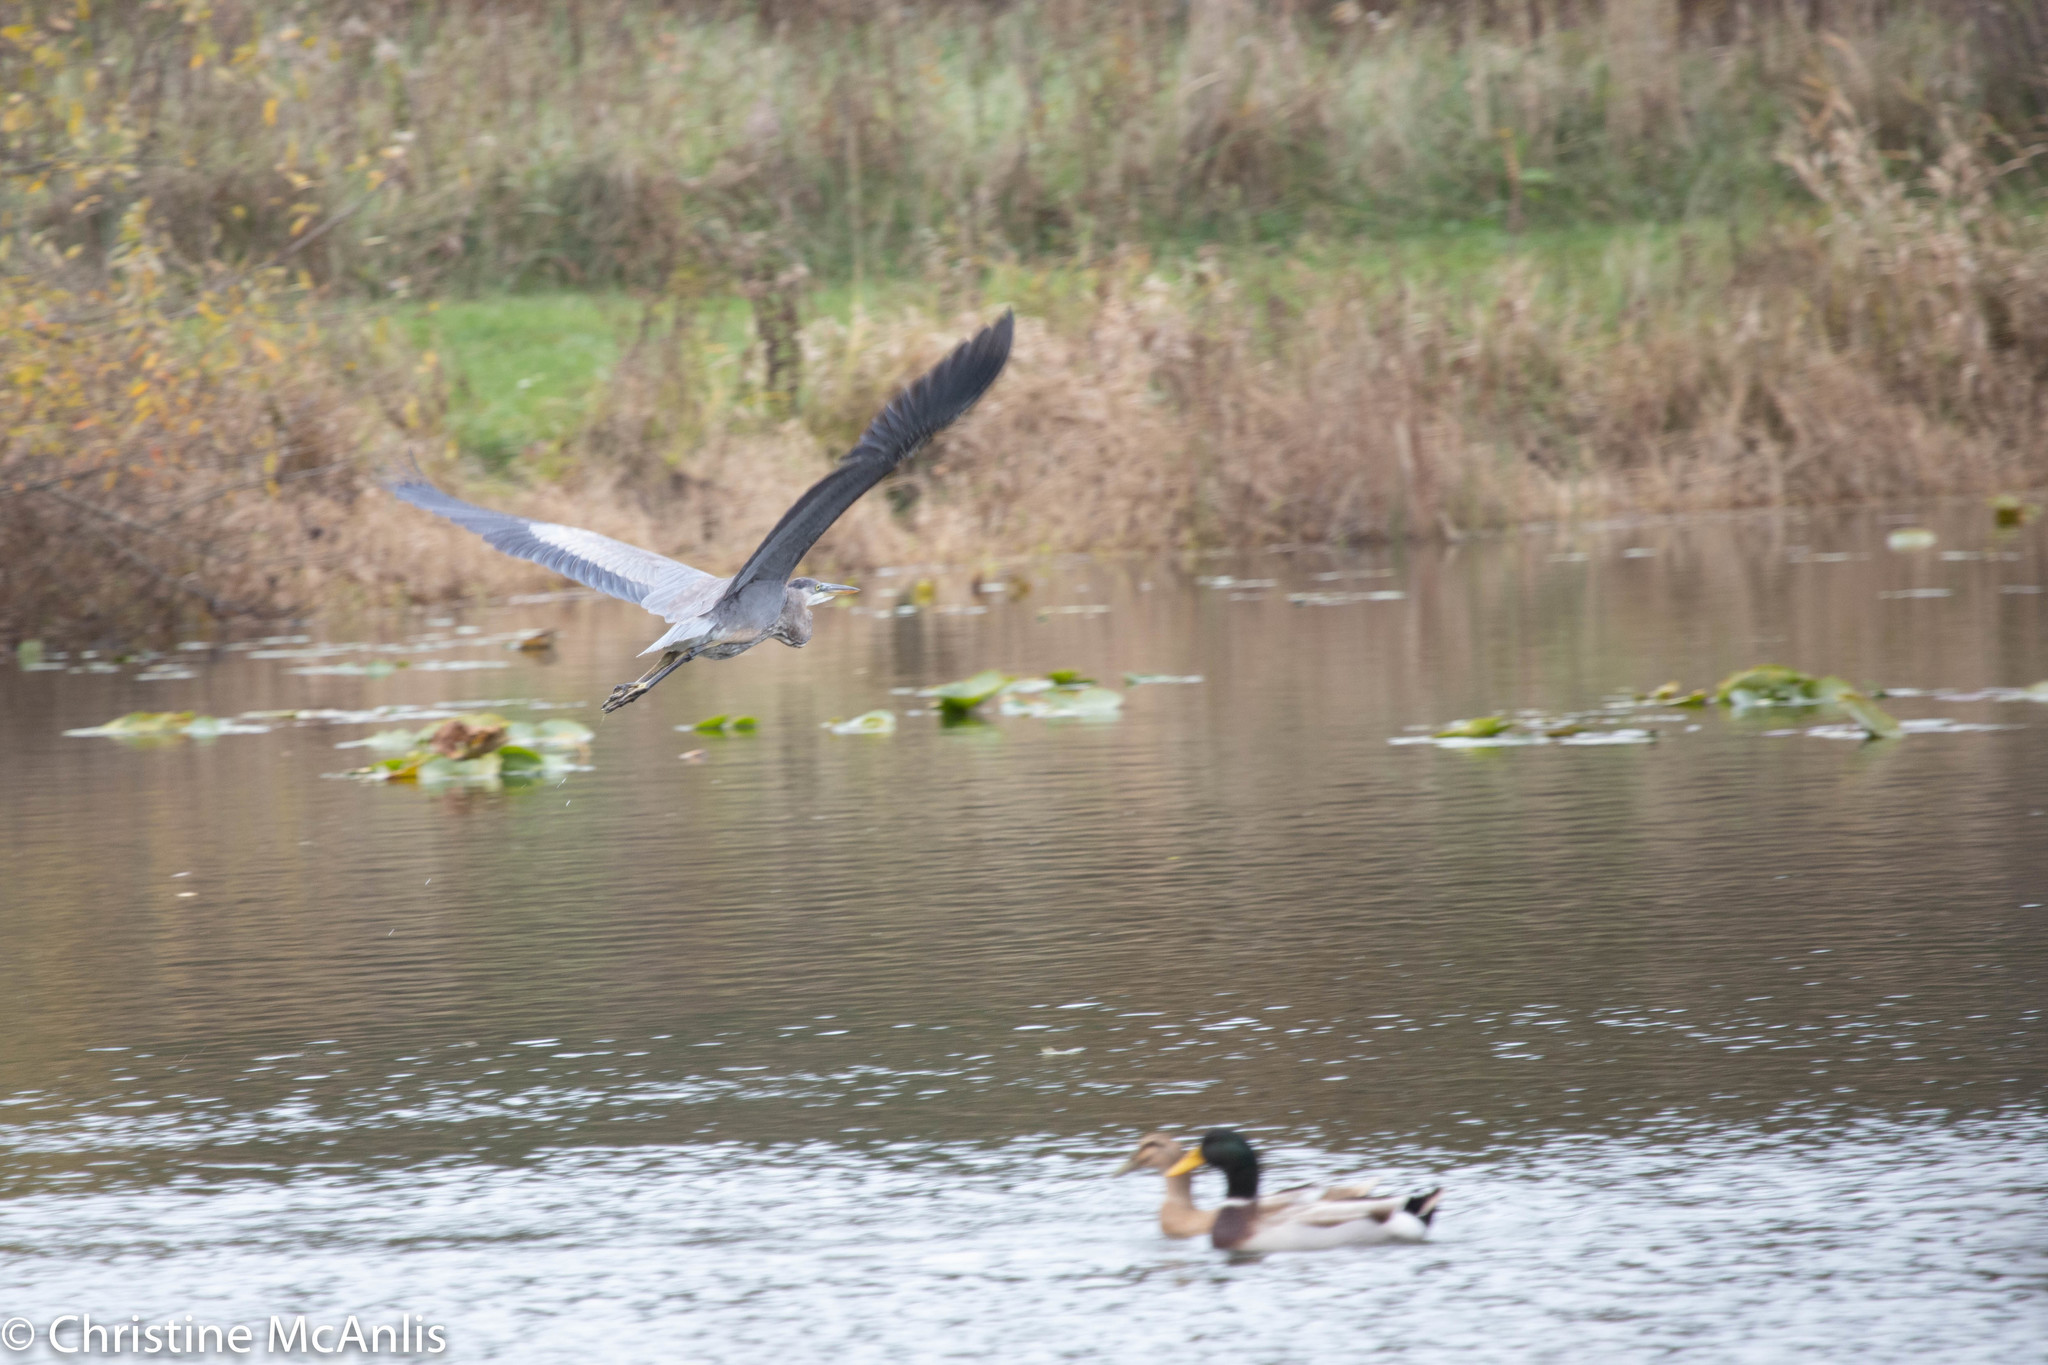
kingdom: Animalia
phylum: Chordata
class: Aves
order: Pelecaniformes
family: Ardeidae
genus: Ardea
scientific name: Ardea herodias
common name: Great blue heron
